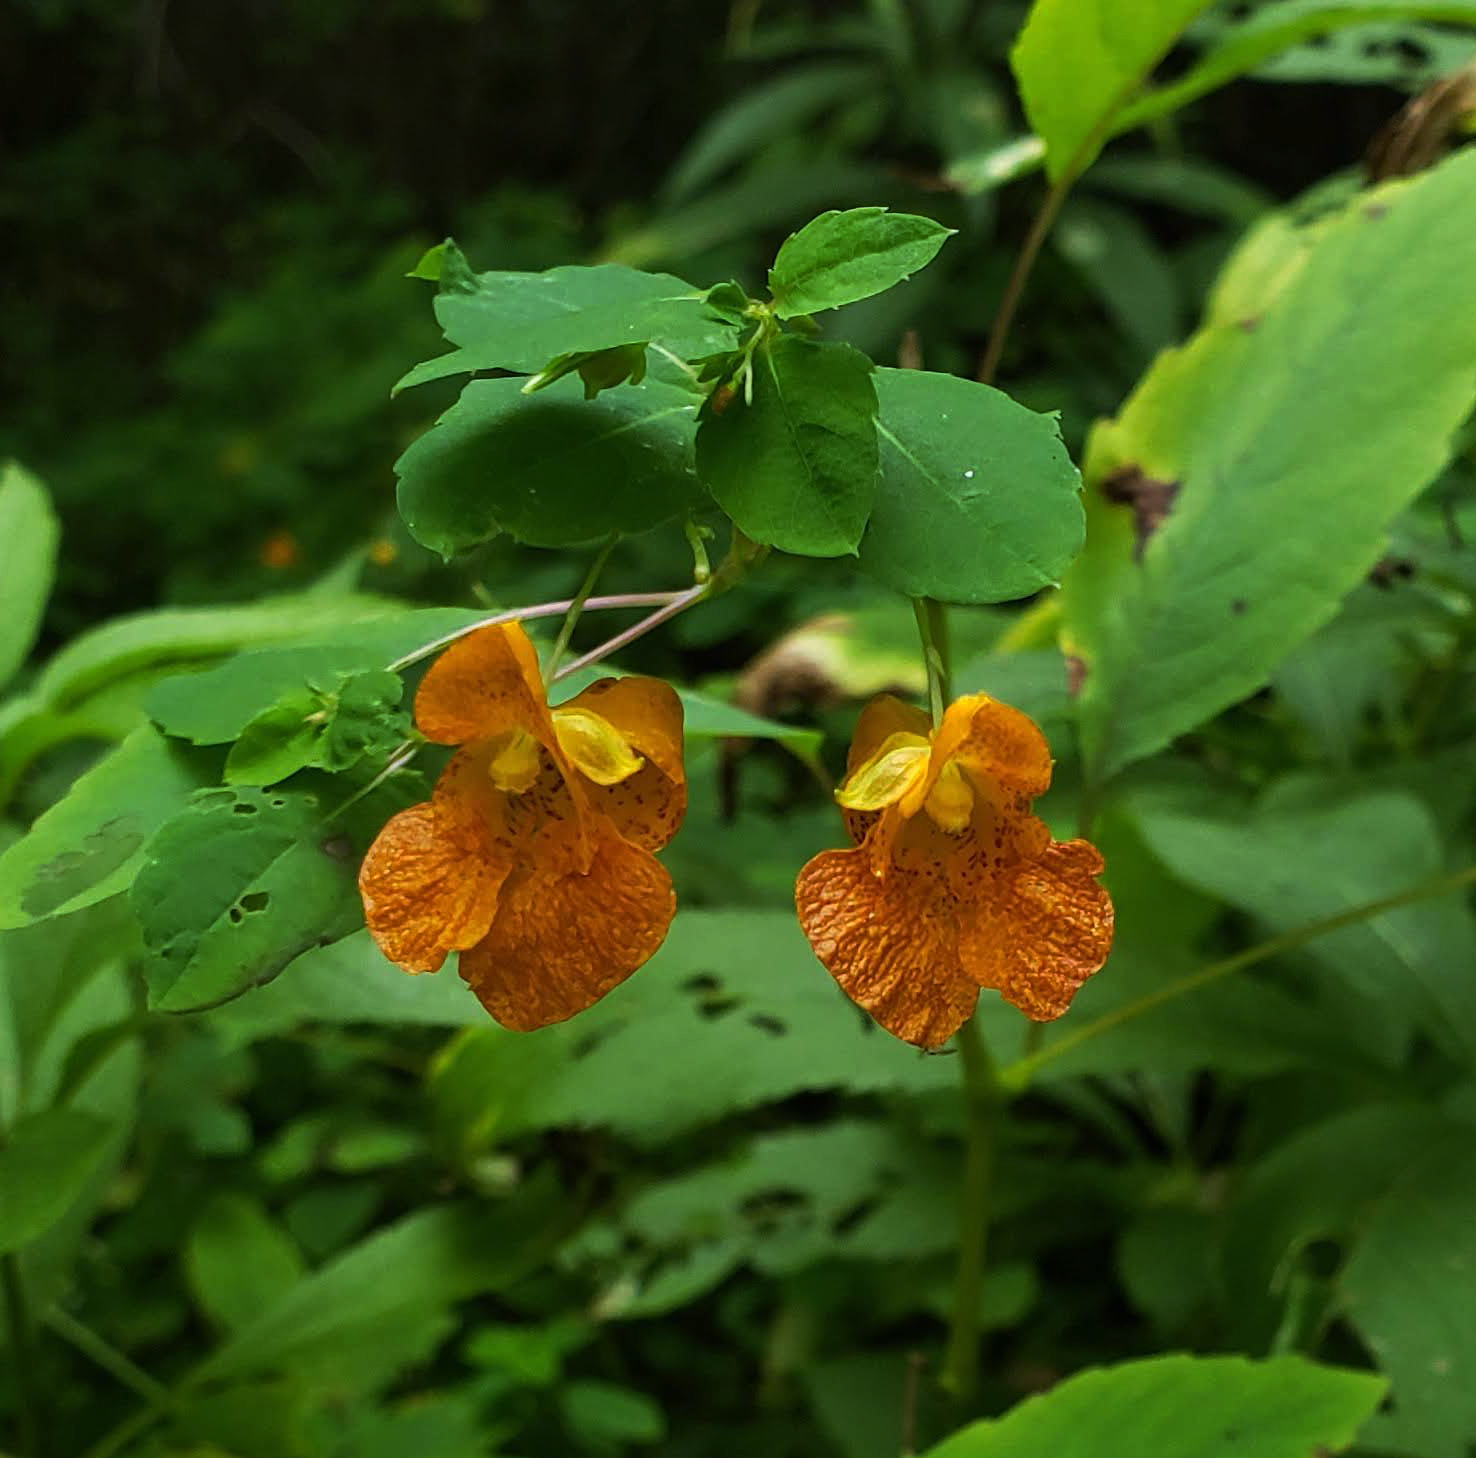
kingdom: Plantae
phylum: Tracheophyta
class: Magnoliopsida
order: Ericales
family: Balsaminaceae
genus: Impatiens
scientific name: Impatiens capensis
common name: Orange balsam
